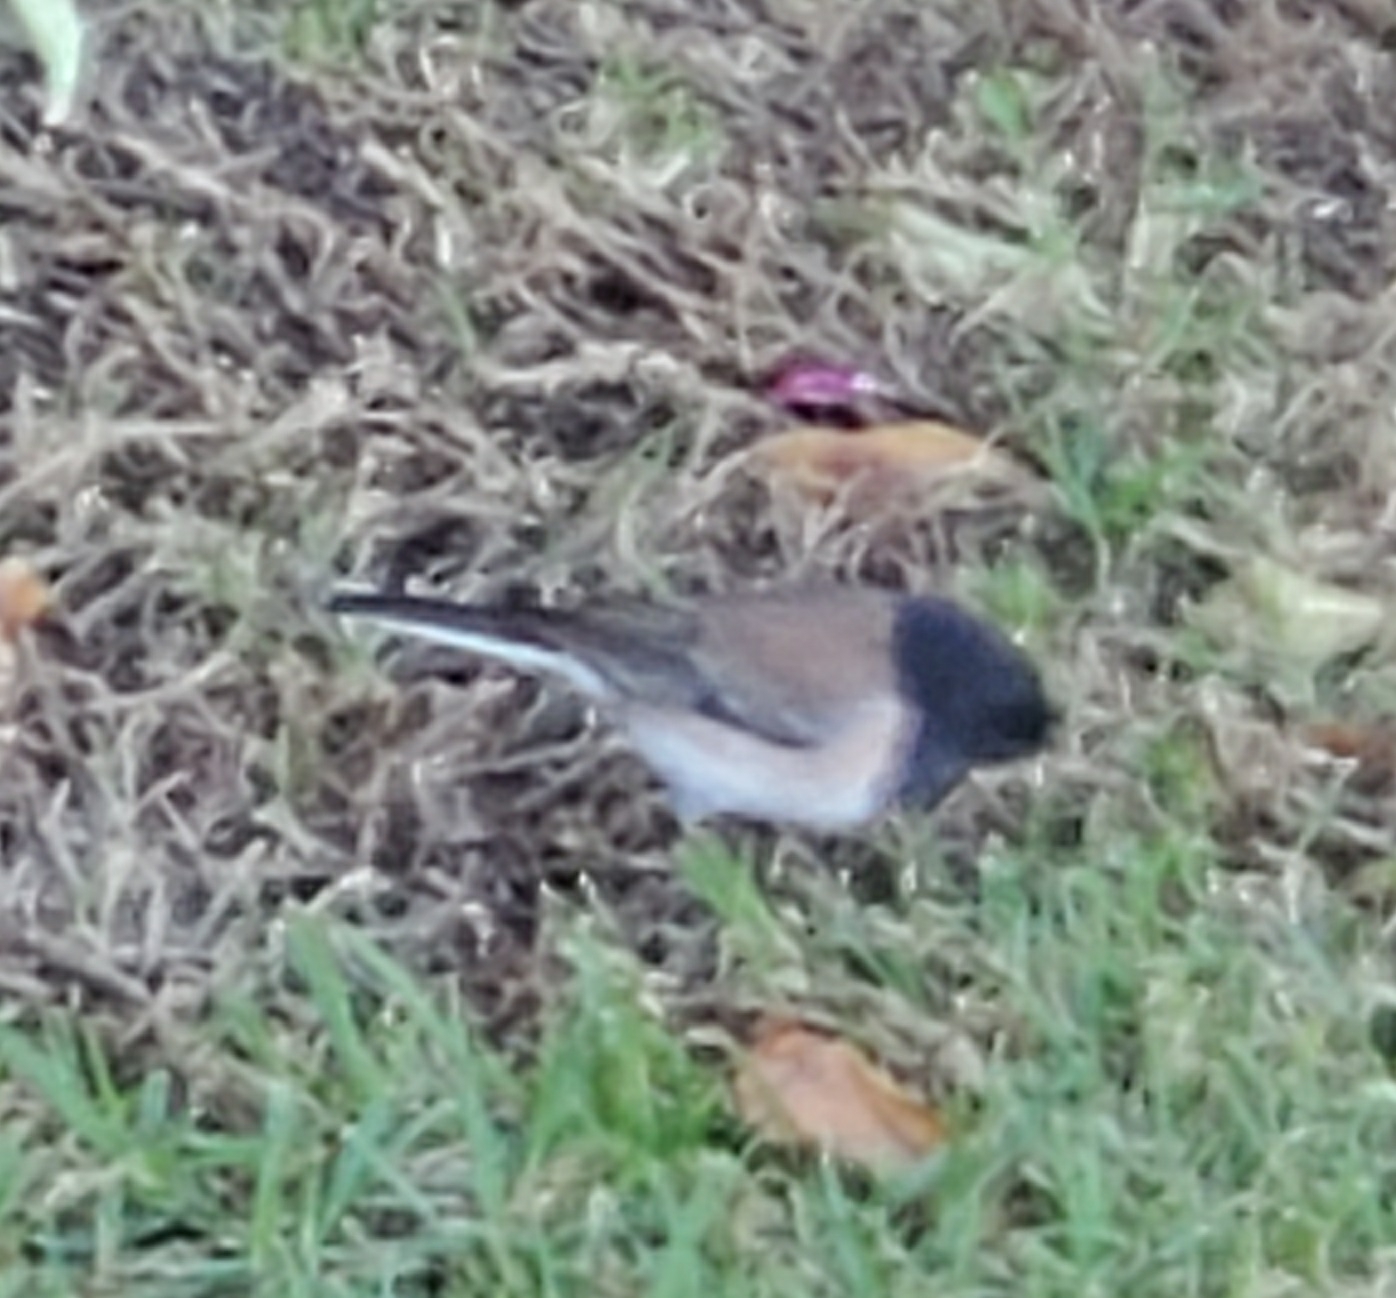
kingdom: Animalia
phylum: Chordata
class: Aves
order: Passeriformes
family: Passerellidae
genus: Junco
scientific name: Junco hyemalis
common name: Dark-eyed junco
